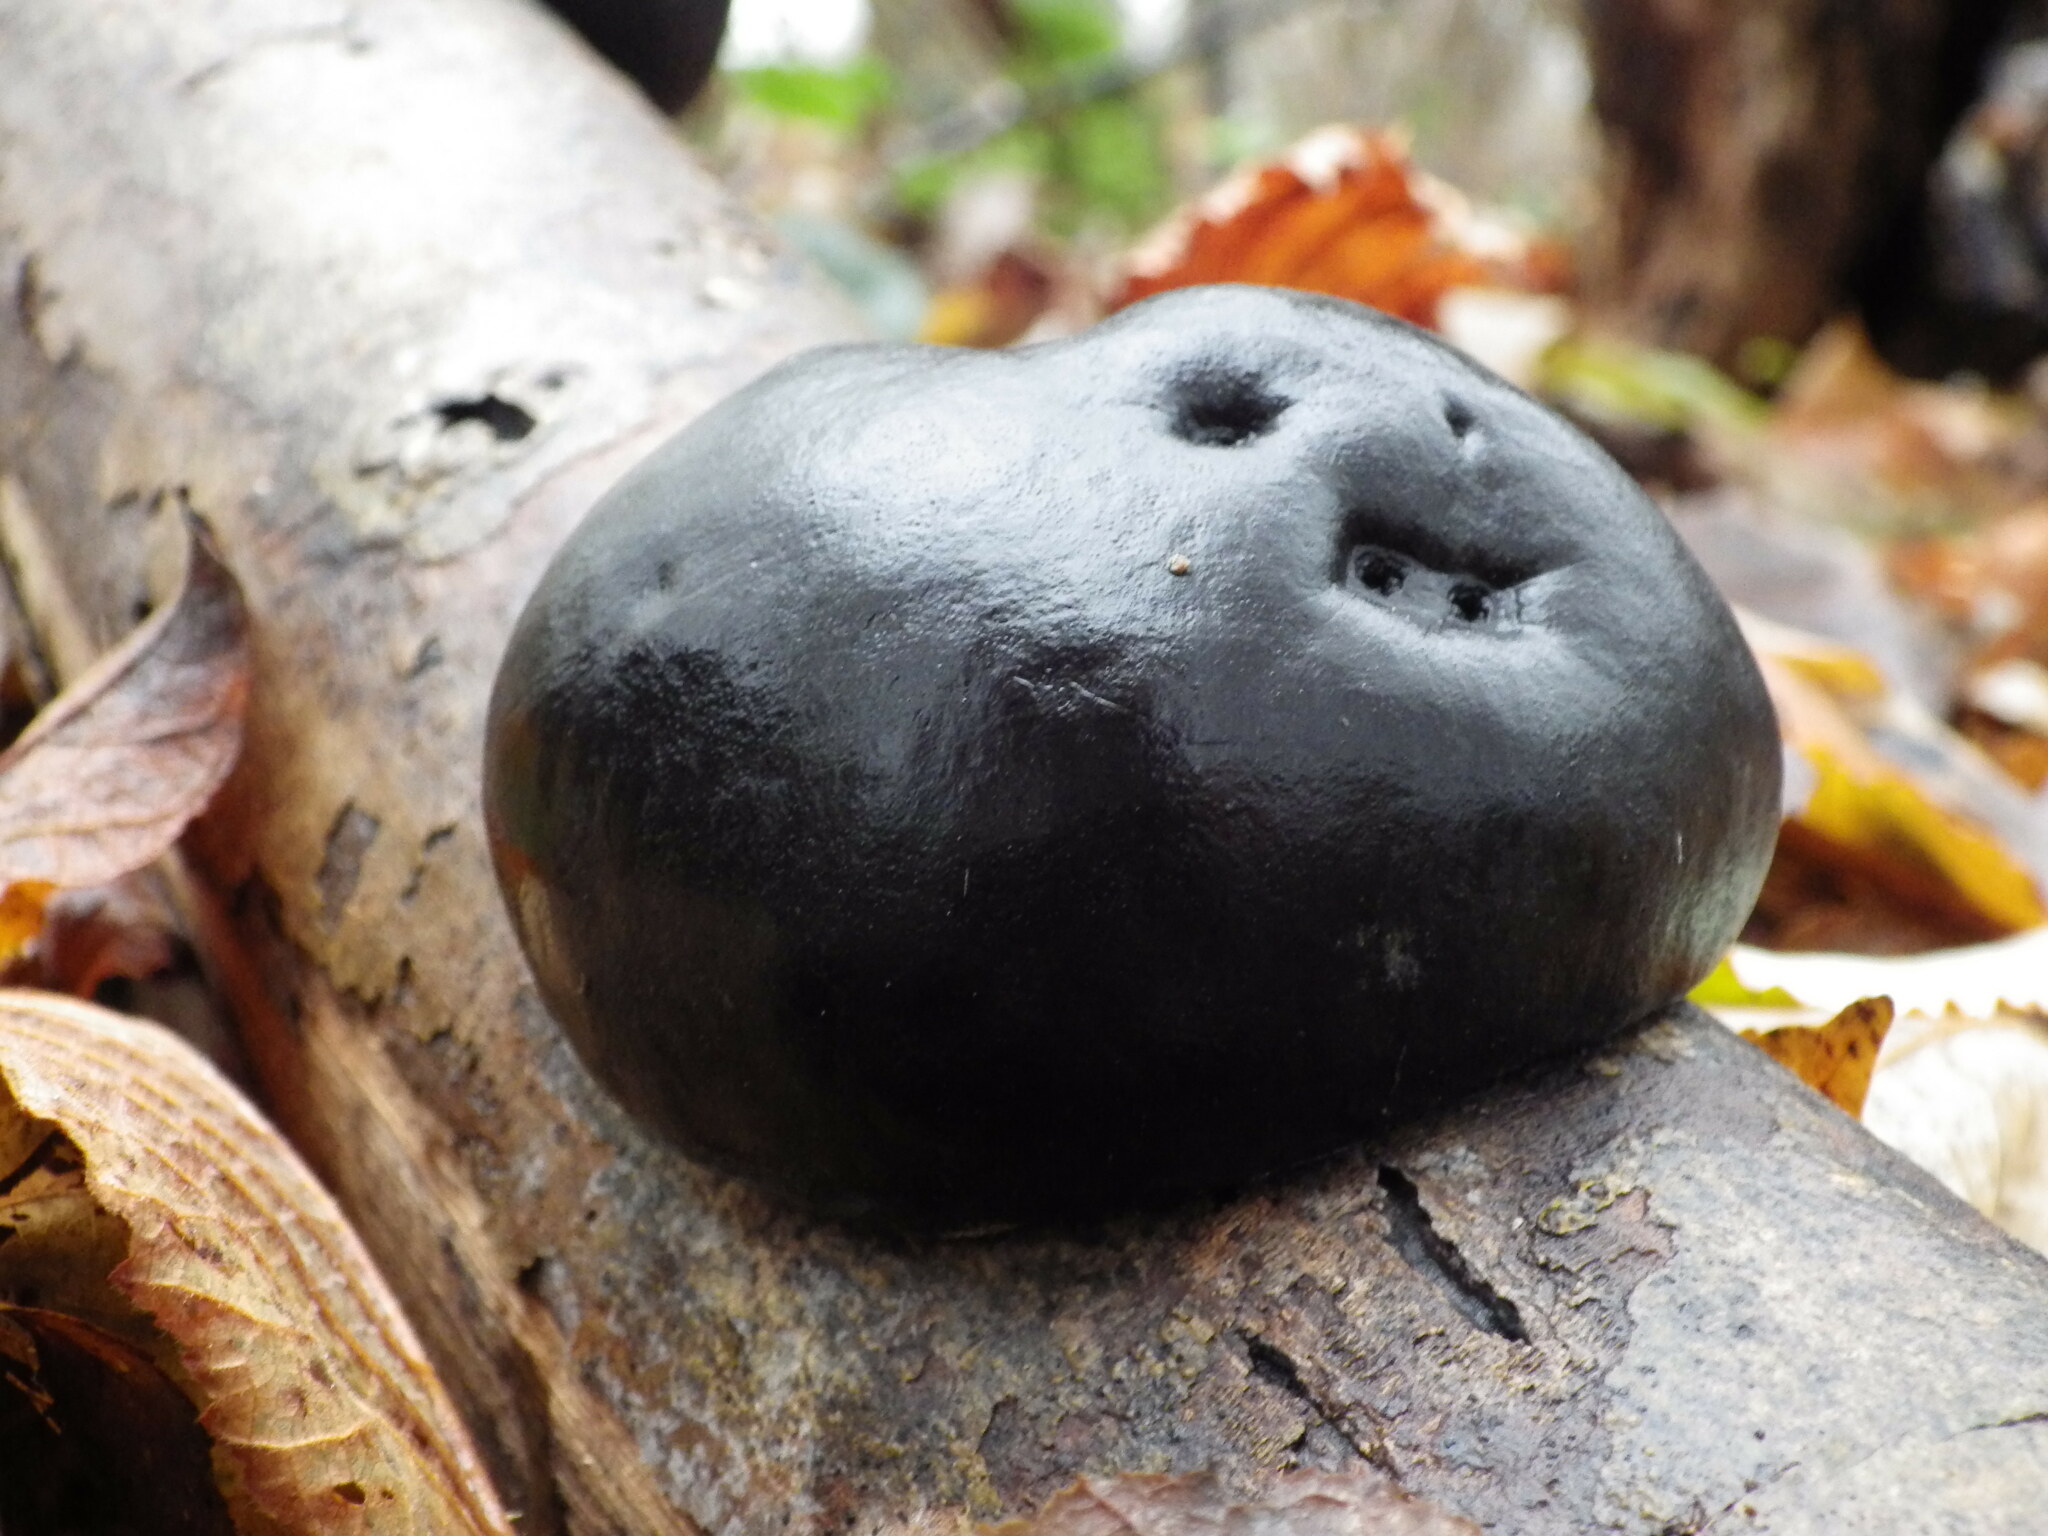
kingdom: Fungi
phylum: Ascomycota
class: Sordariomycetes
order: Xylariales
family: Hypoxylaceae
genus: Daldinia
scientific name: Daldinia concentrica
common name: Cramp balls
